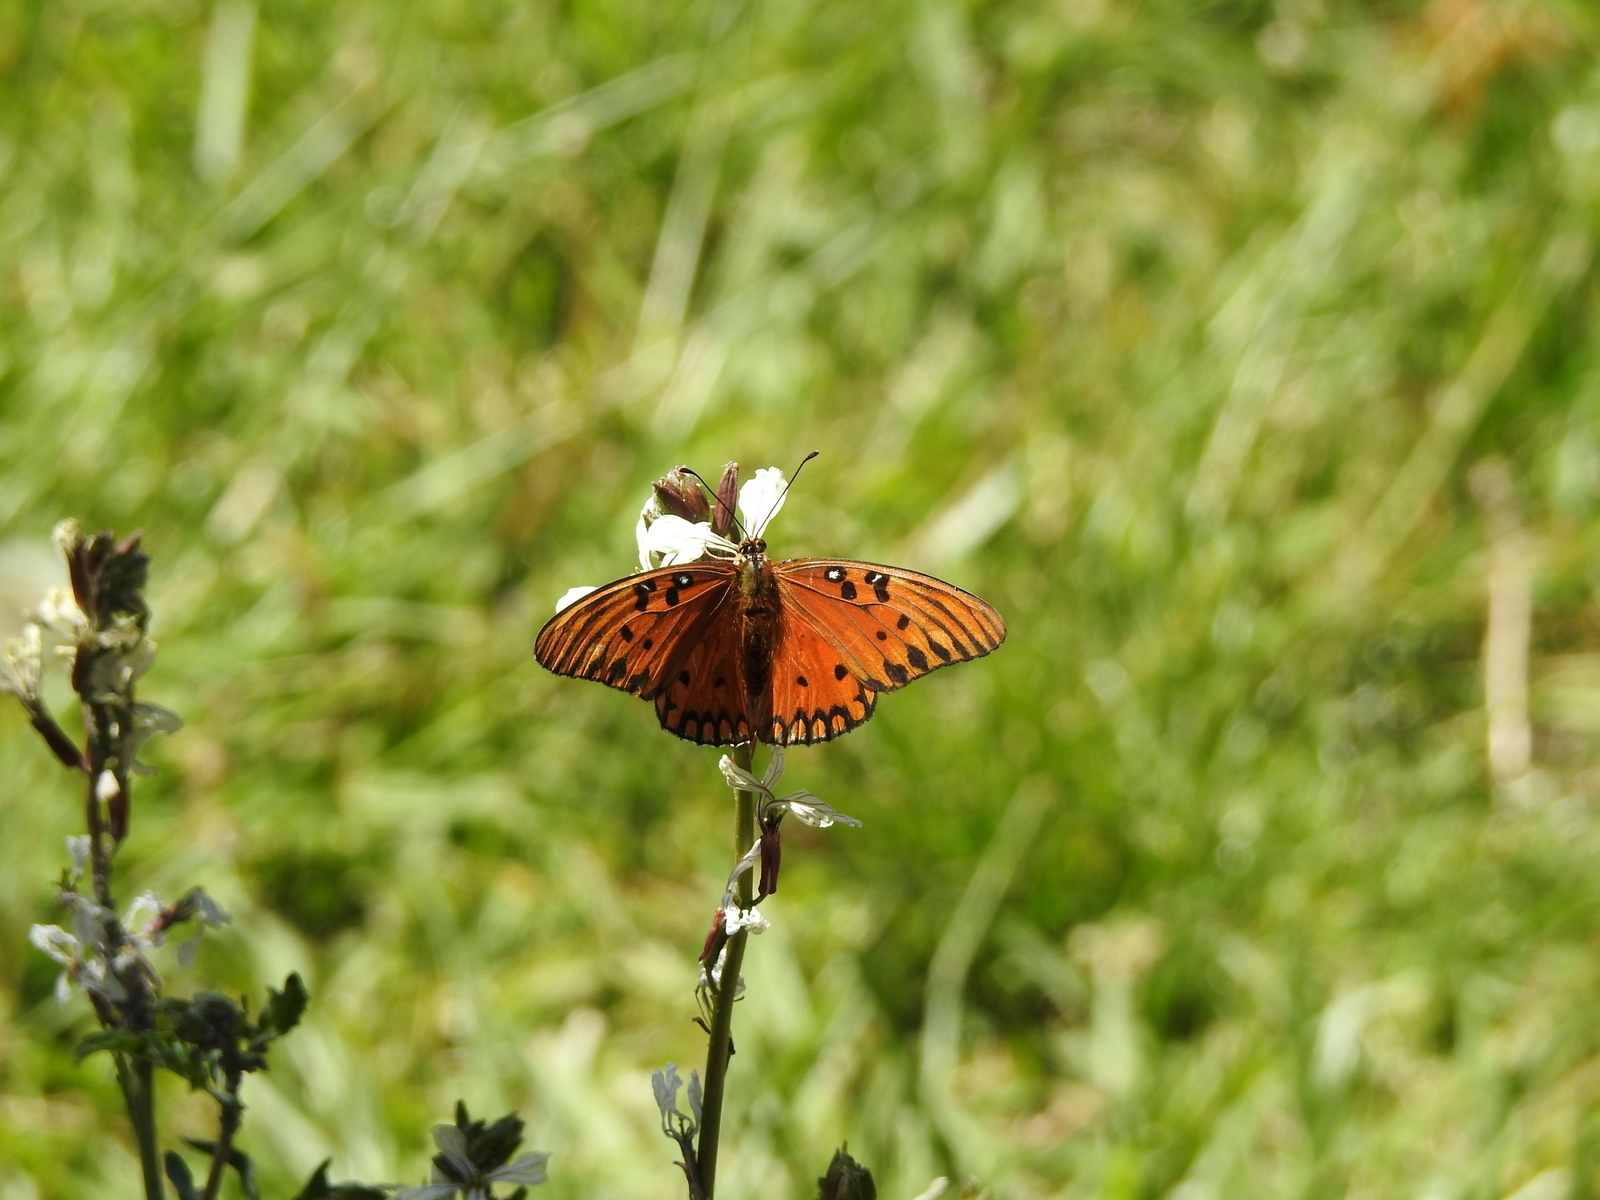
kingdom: Animalia
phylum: Arthropoda
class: Insecta
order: Lepidoptera
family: Nymphalidae
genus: Dione
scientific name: Dione vanillae
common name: Gulf fritillary
